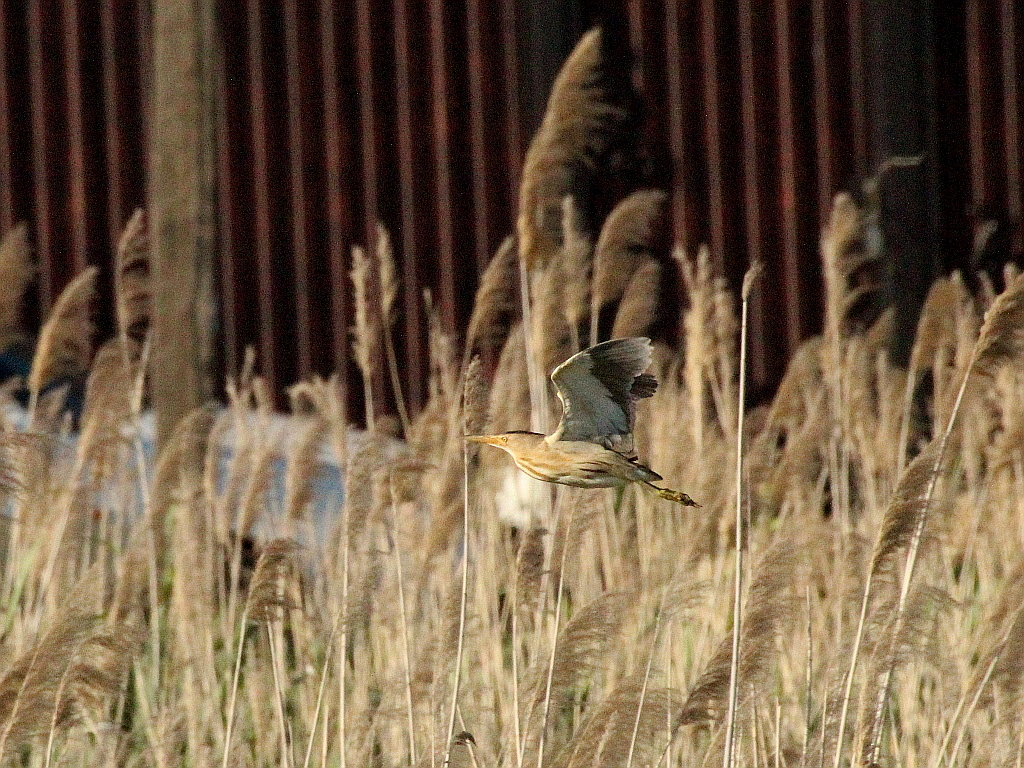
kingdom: Animalia
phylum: Chordata
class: Aves
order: Pelecaniformes
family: Ardeidae
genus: Ixobrychus
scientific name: Ixobrychus minutus
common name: Little bittern
